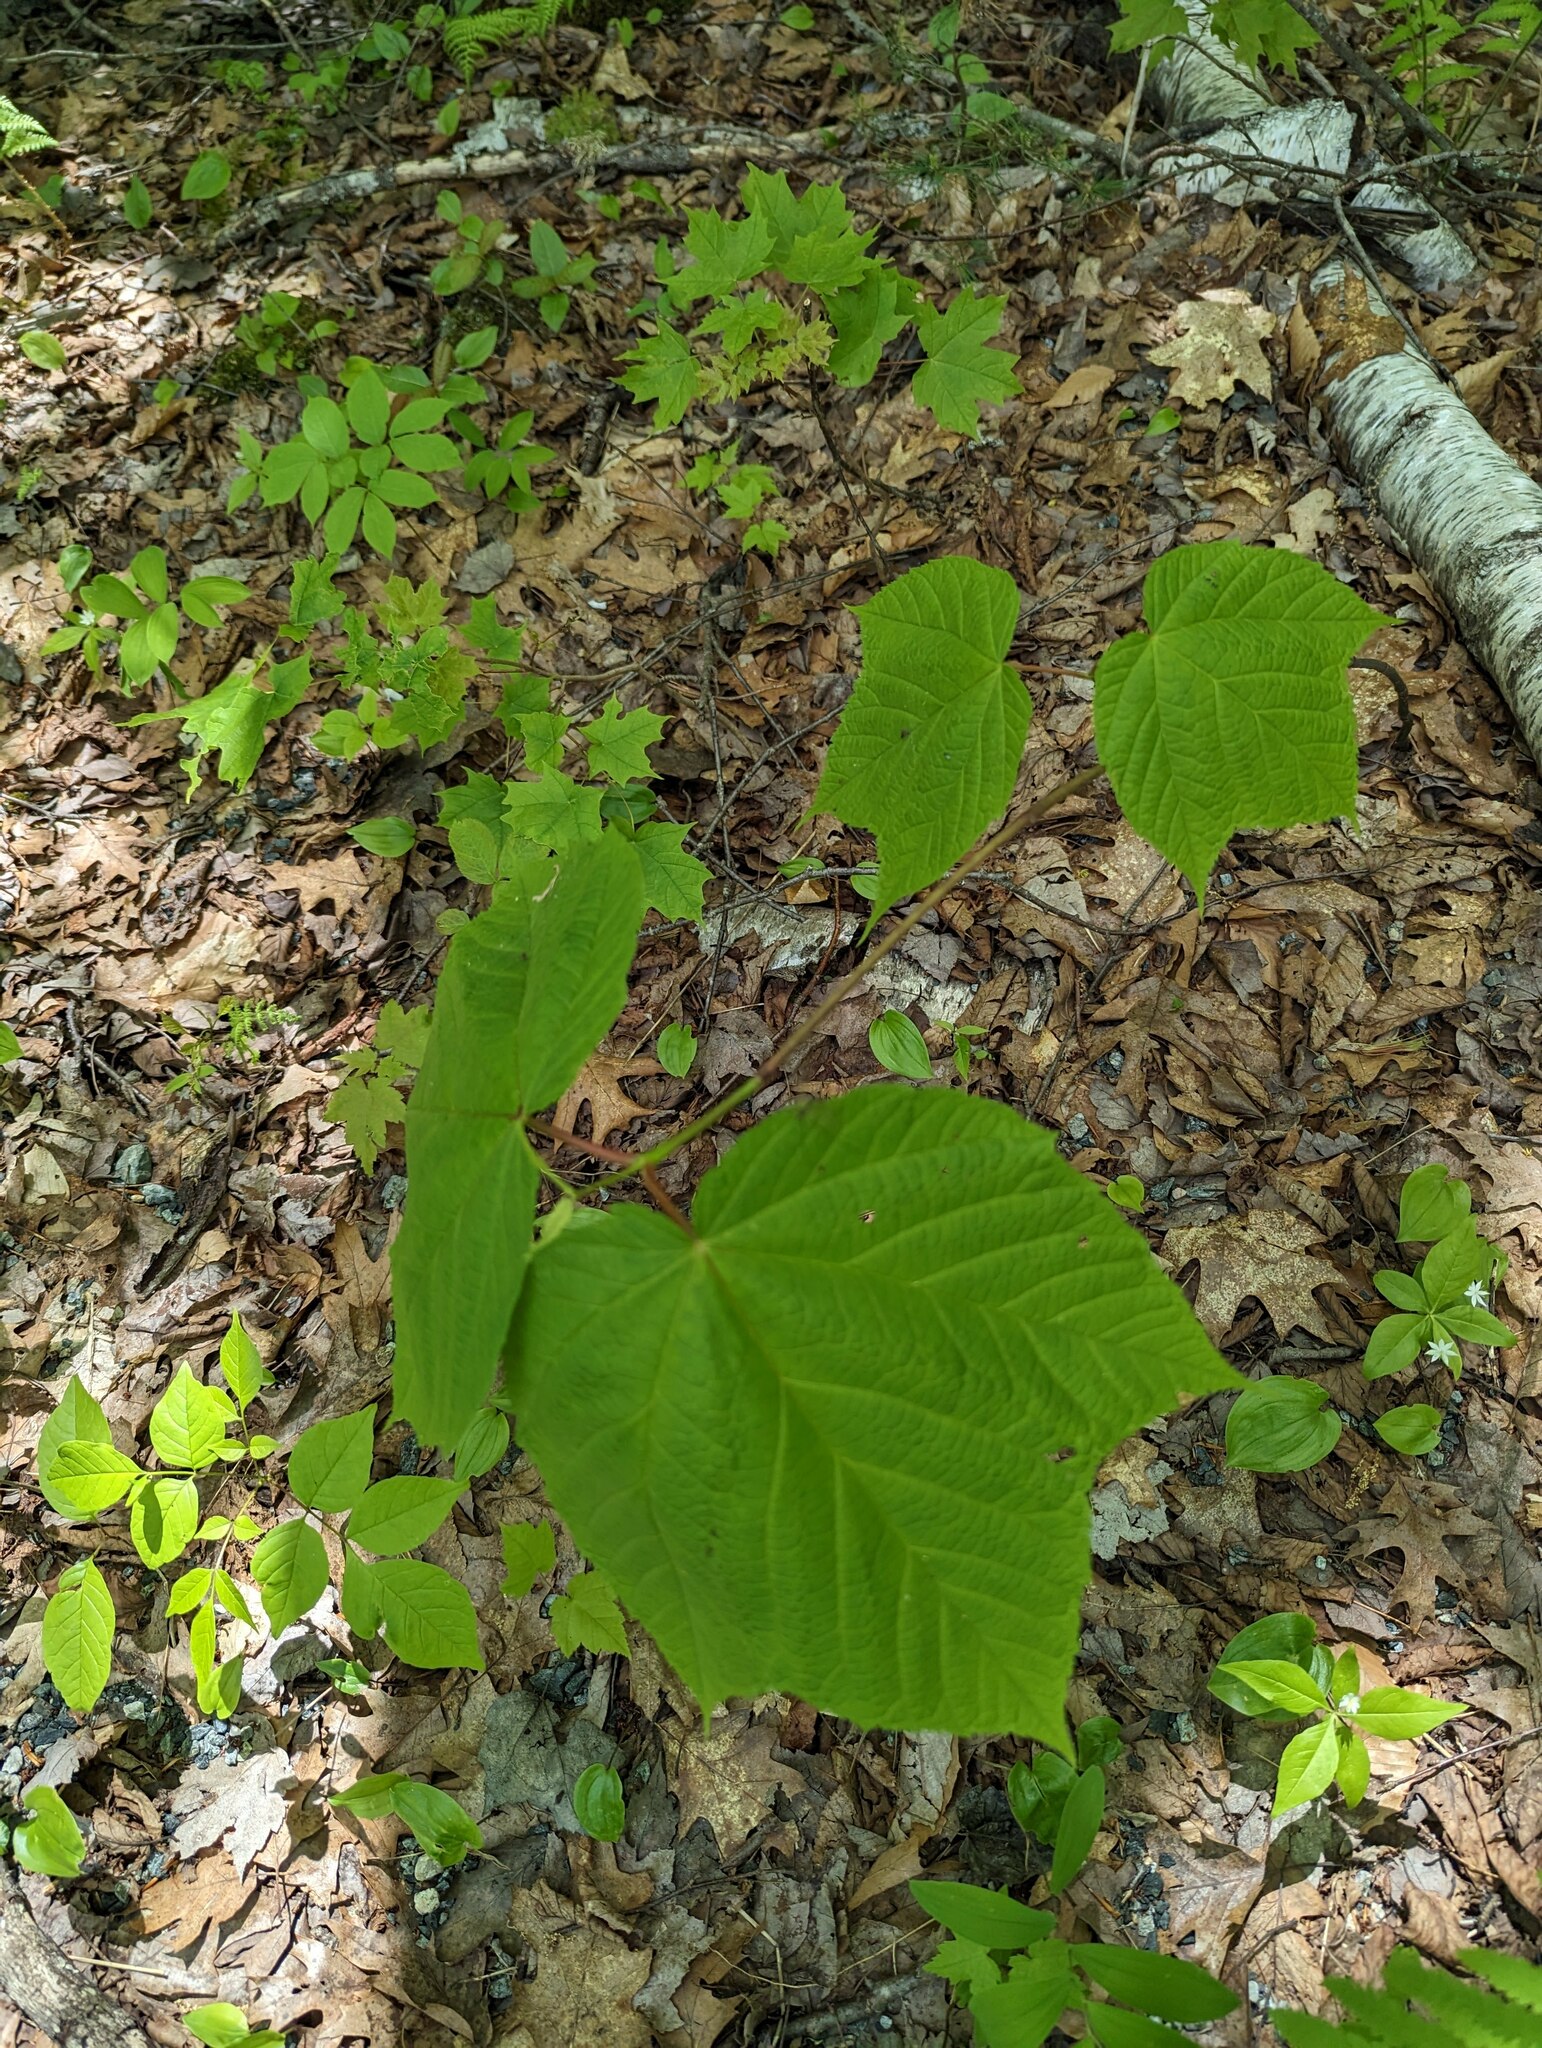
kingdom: Plantae
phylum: Tracheophyta
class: Magnoliopsida
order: Sapindales
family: Sapindaceae
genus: Acer
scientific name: Acer pensylvanicum
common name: Moosewood
